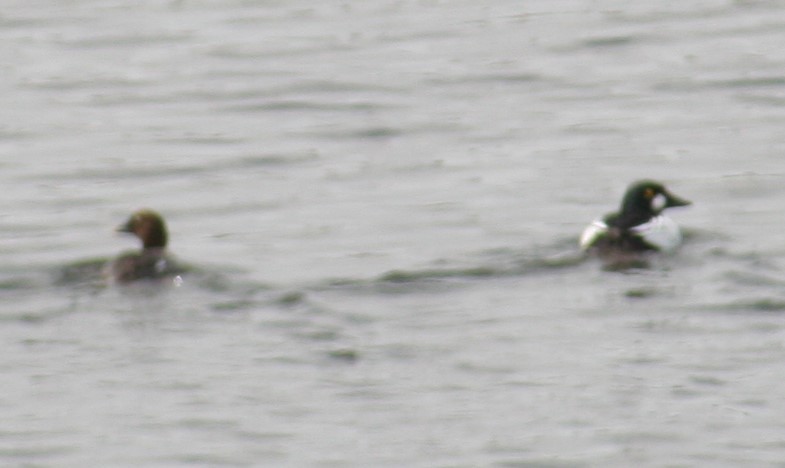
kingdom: Animalia
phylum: Chordata
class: Aves
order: Anseriformes
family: Anatidae
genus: Bucephala
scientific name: Bucephala clangula
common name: Common goldeneye
